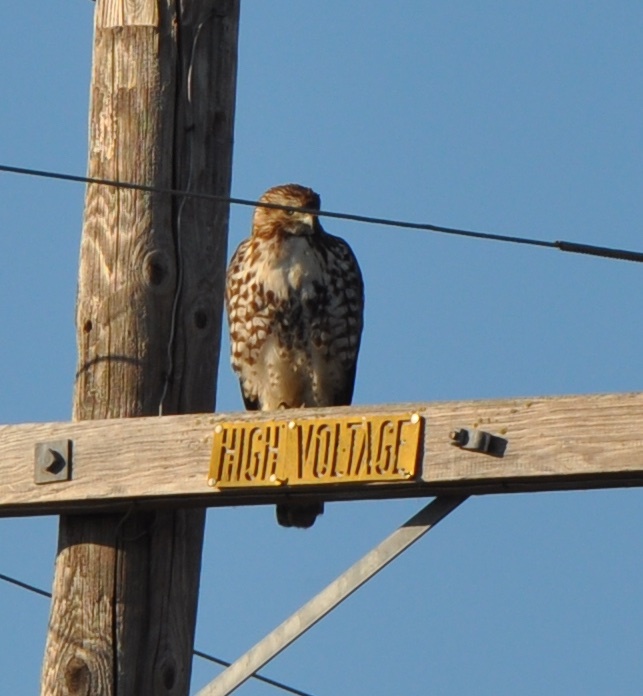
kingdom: Animalia
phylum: Chordata
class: Aves
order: Accipitriformes
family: Accipitridae
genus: Buteo
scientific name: Buteo jamaicensis
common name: Red-tailed hawk
